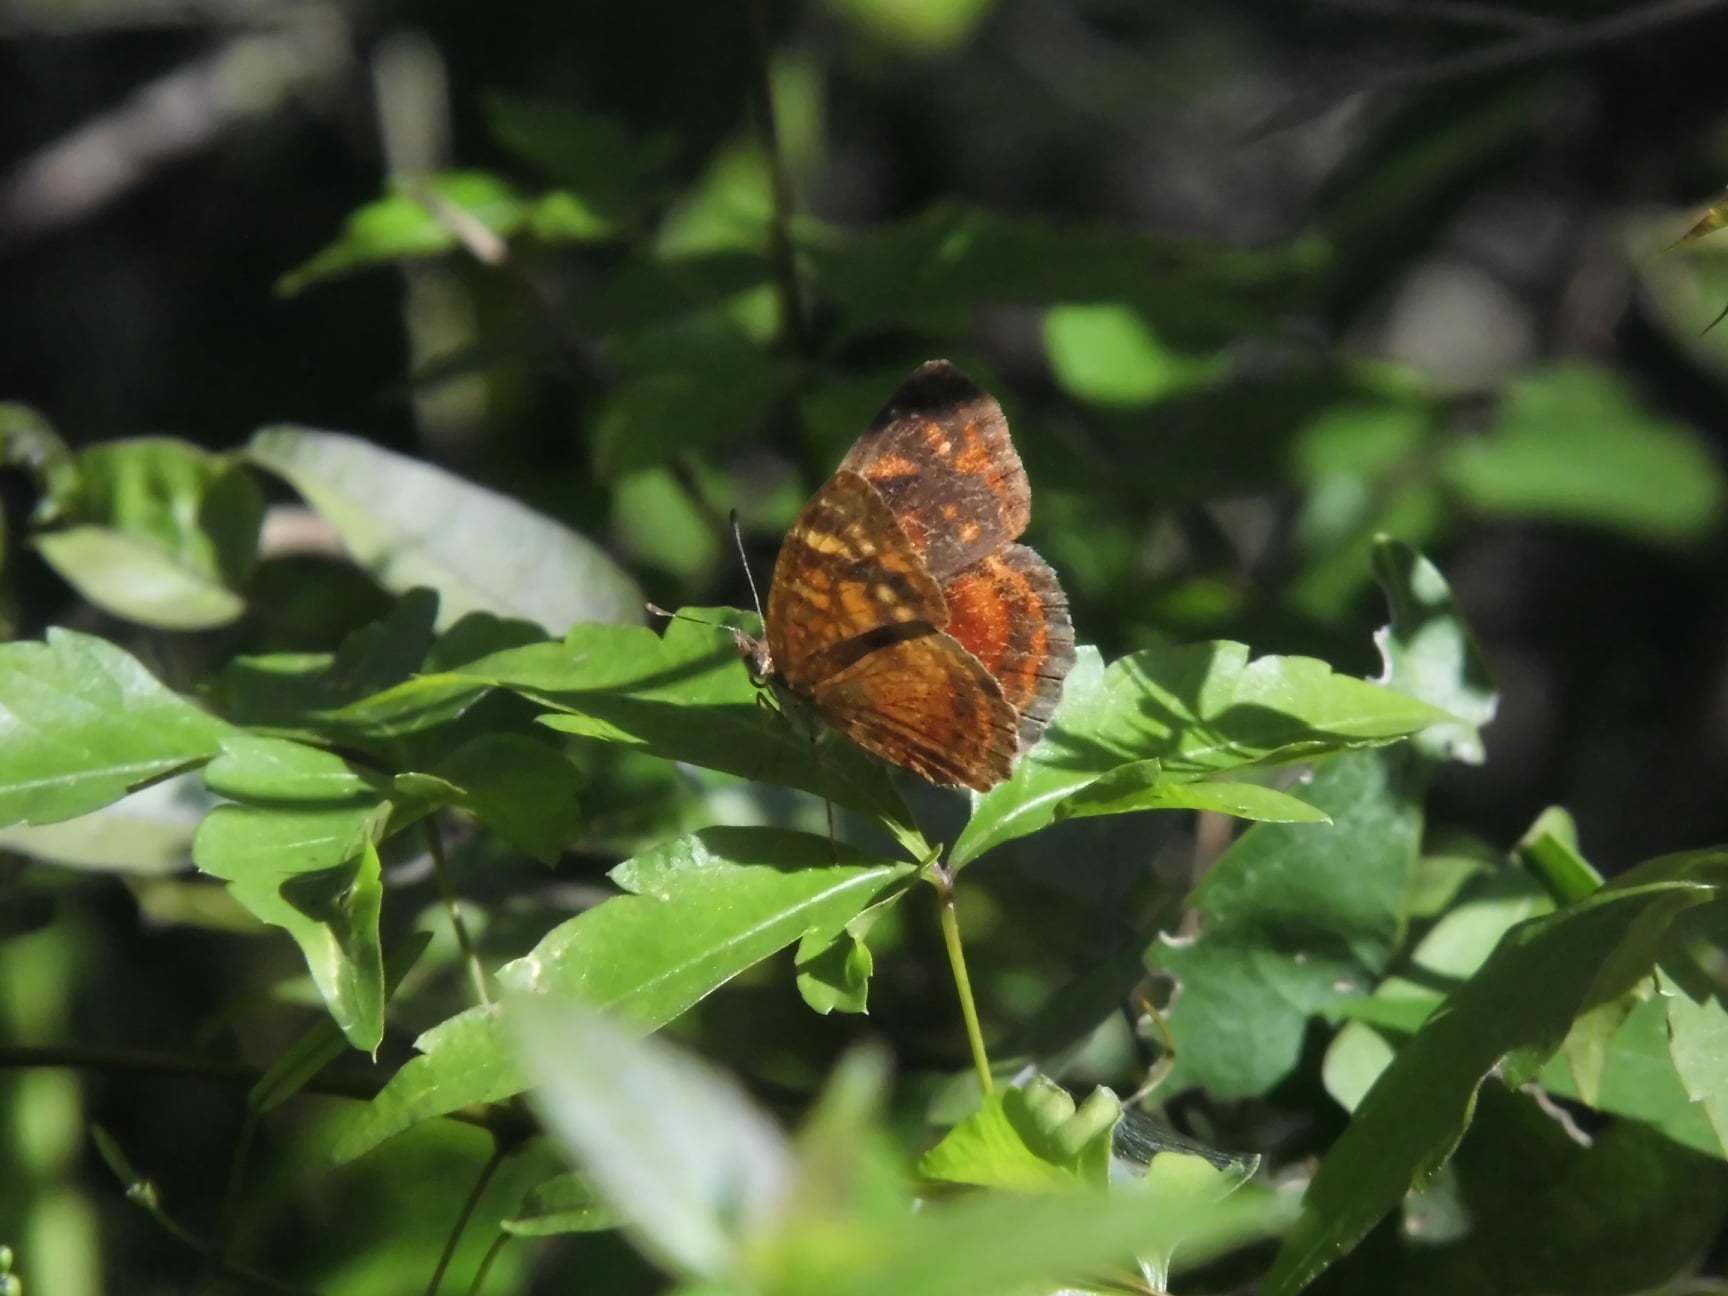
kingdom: Animalia
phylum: Arthropoda
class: Insecta
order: Lepidoptera
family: Nymphalidae
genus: Ortilia
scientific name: Ortilia velica
